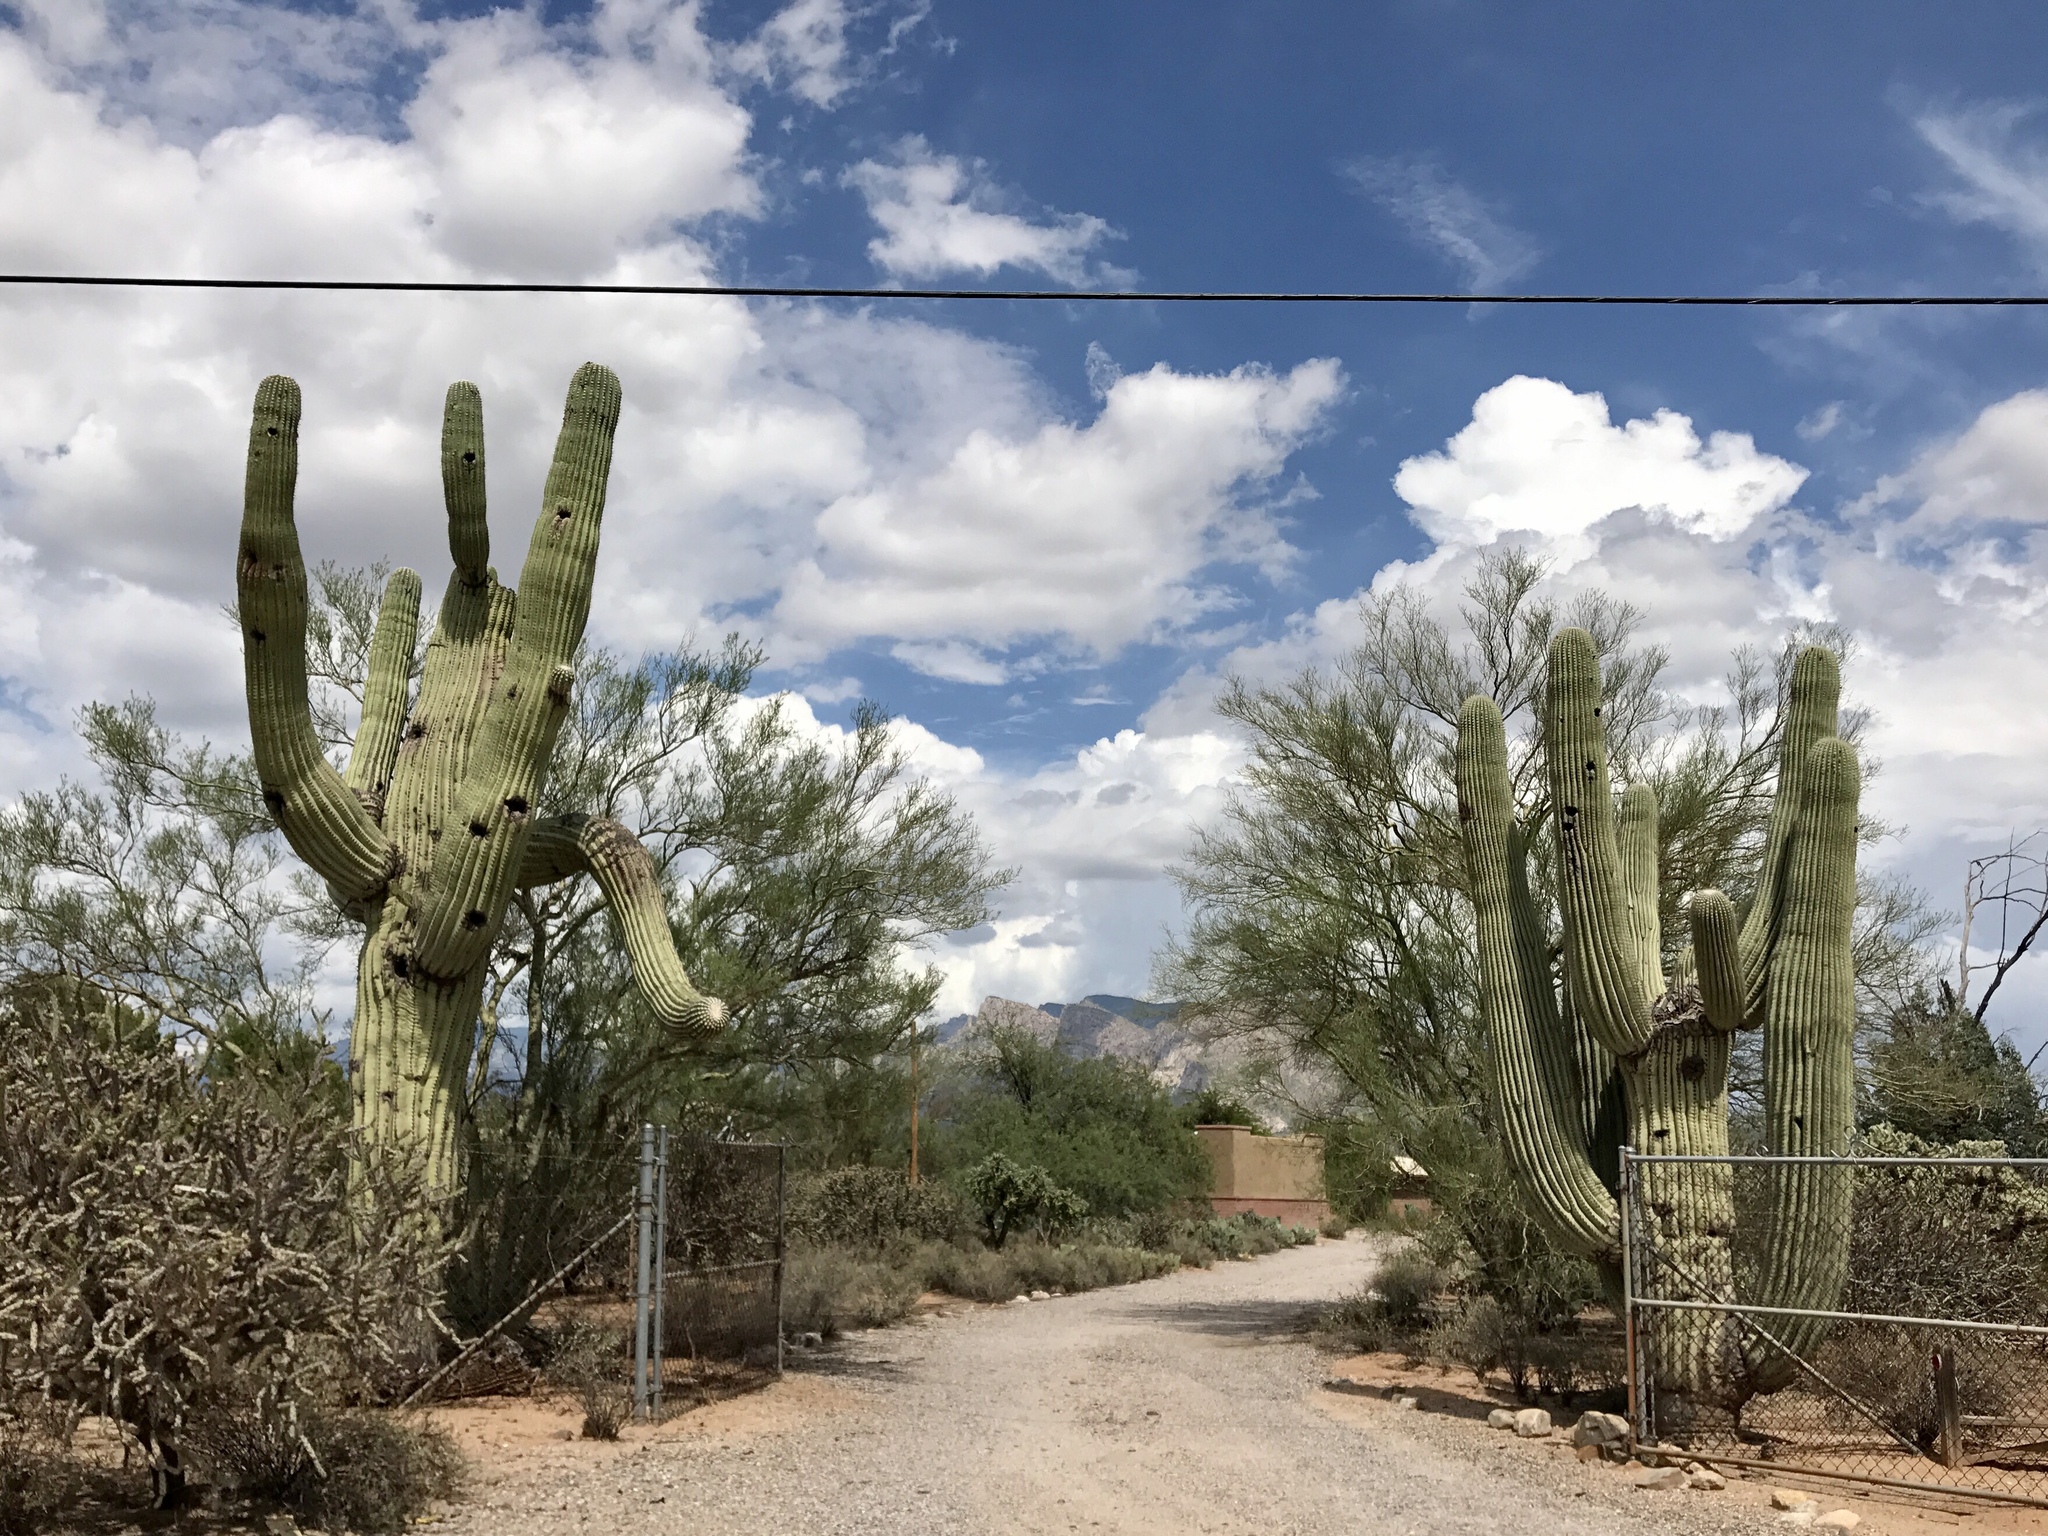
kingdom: Plantae
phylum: Tracheophyta
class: Magnoliopsida
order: Caryophyllales
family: Cactaceae
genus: Carnegiea
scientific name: Carnegiea gigantea
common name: Saguaro
